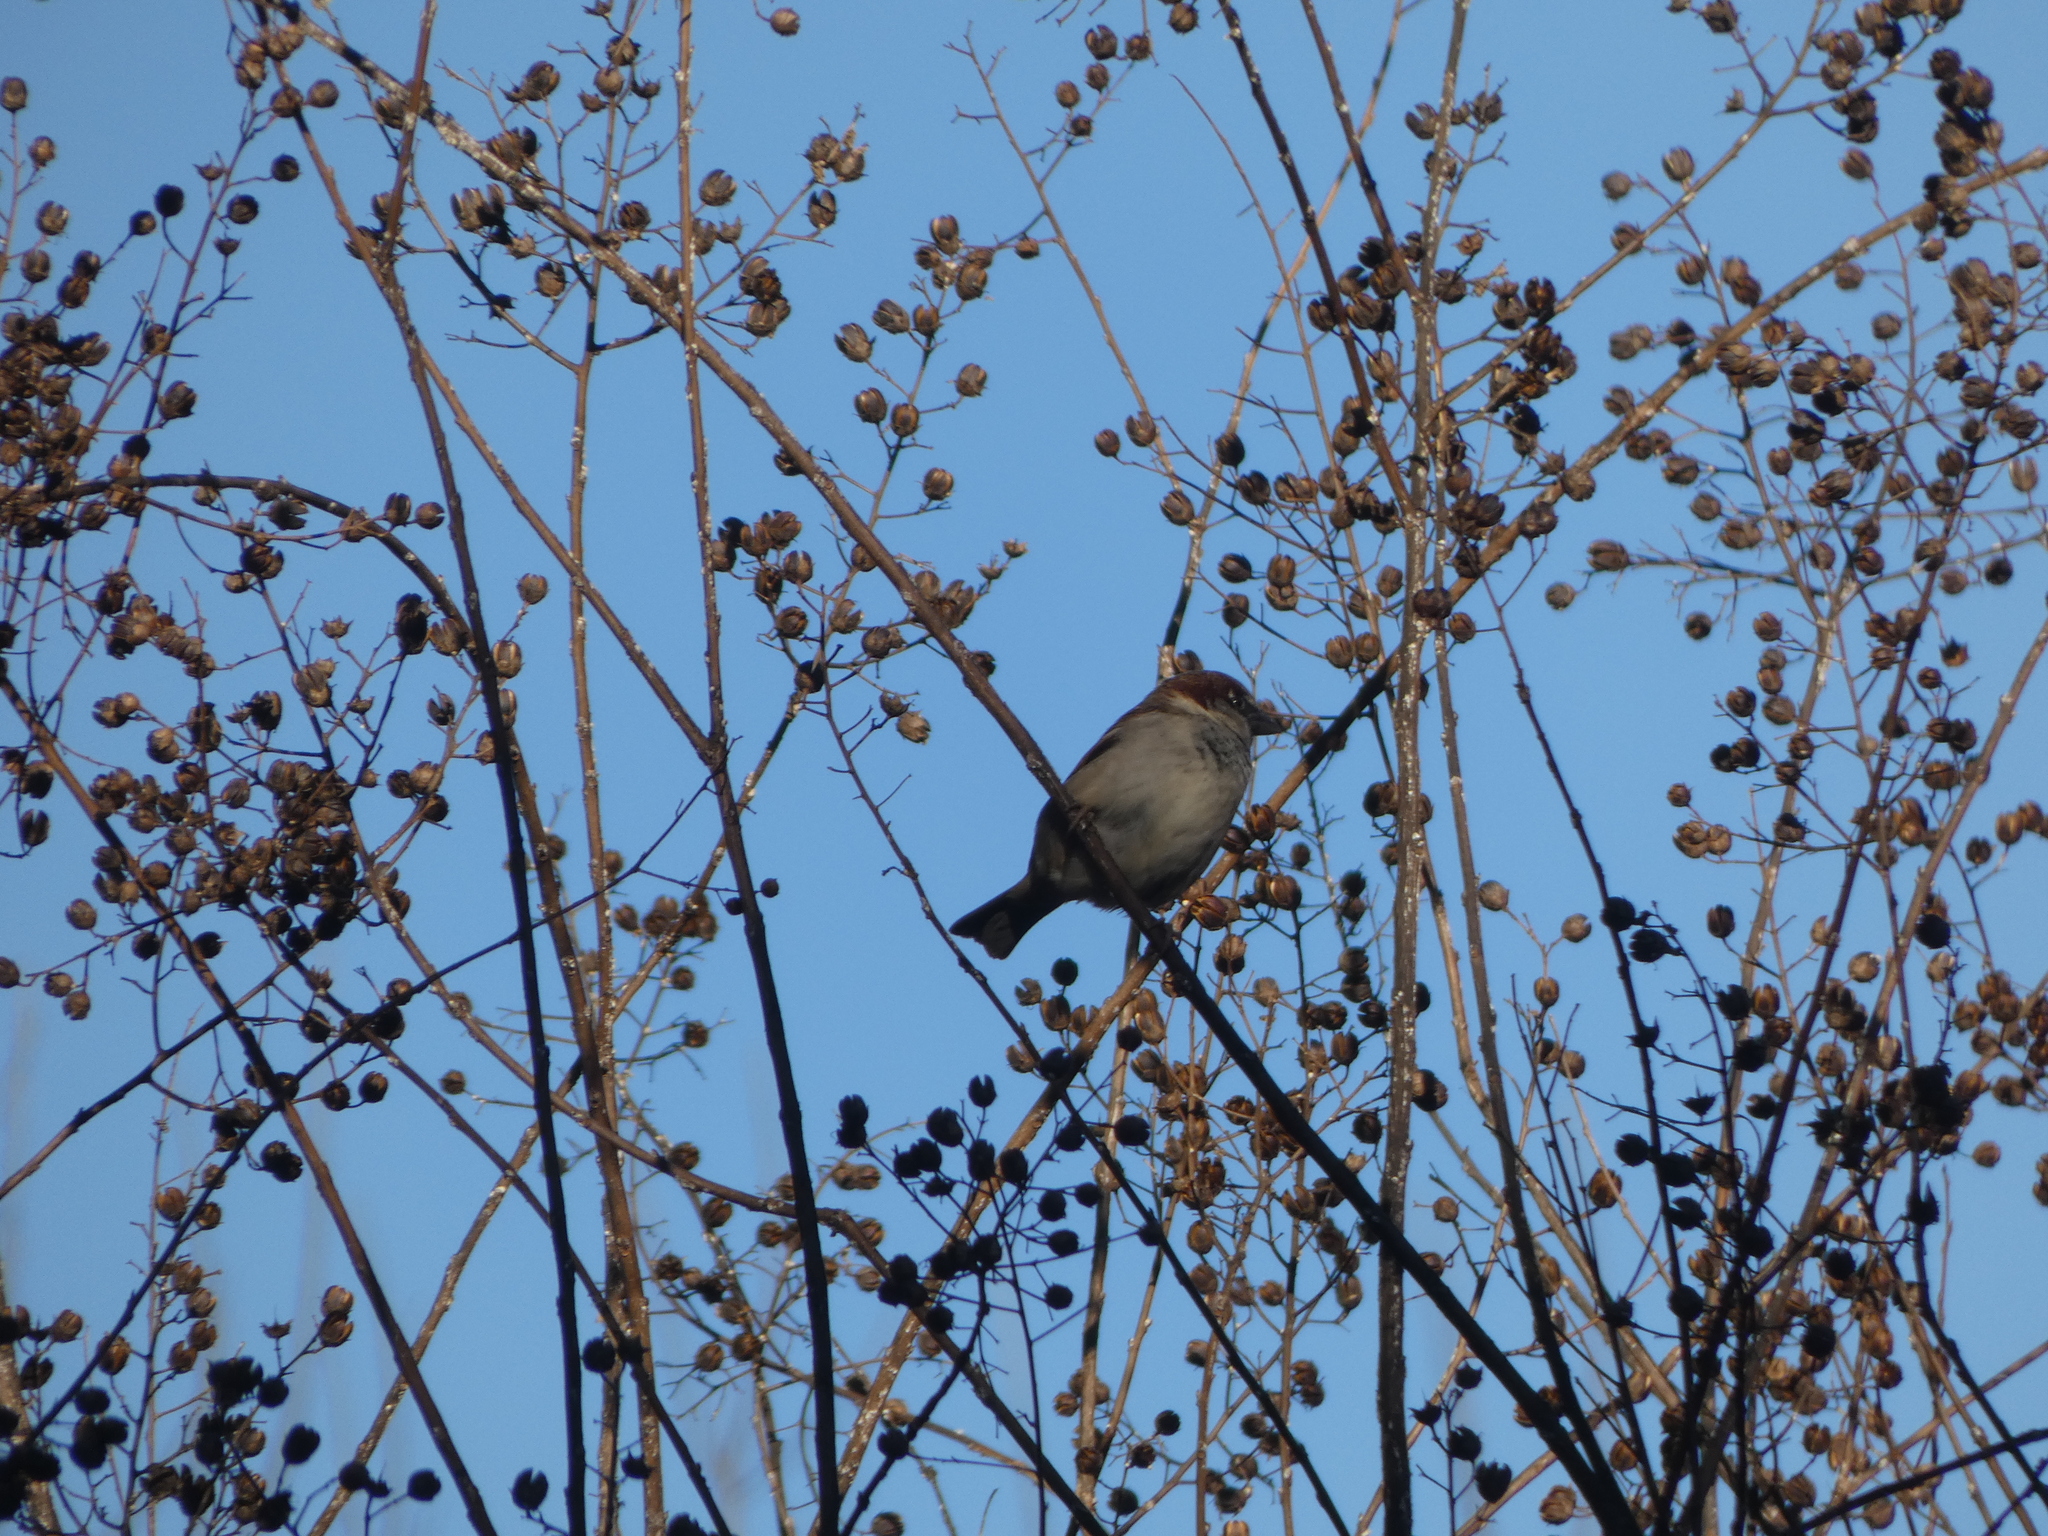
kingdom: Animalia
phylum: Chordata
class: Aves
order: Passeriformes
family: Passeridae
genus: Passer
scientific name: Passer domesticus
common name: House sparrow
